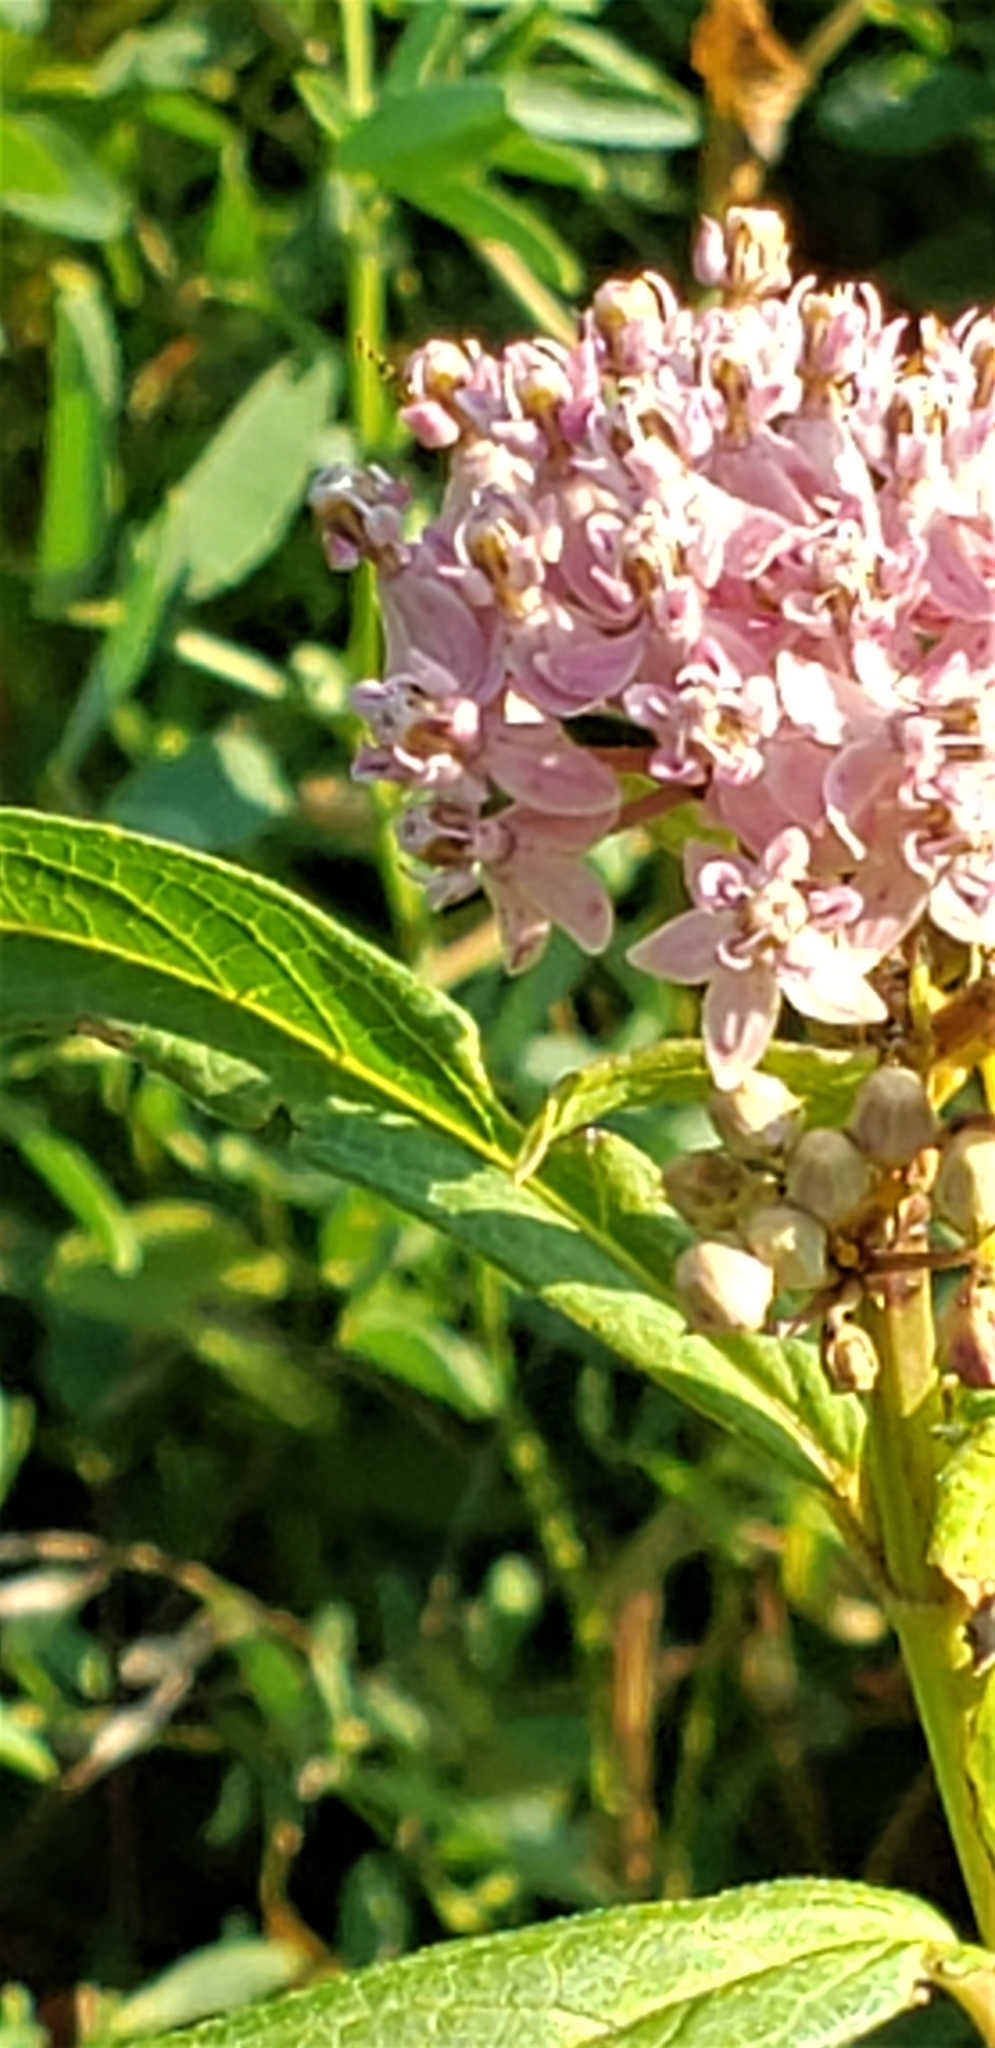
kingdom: Plantae
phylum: Tracheophyta
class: Magnoliopsida
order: Gentianales
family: Apocynaceae
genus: Asclepias
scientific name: Asclepias incarnata
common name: Swamp milkweed
